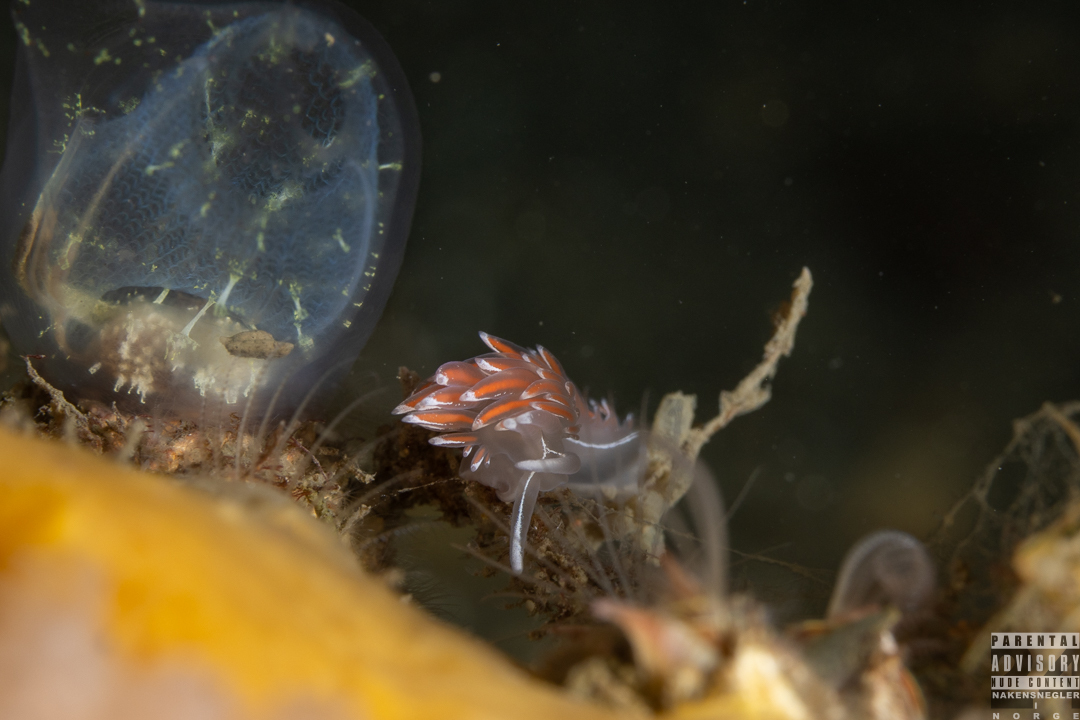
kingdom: Animalia
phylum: Mollusca
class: Gastropoda
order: Nudibranchia
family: Coryphellidae
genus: Coryphella
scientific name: Coryphella lineata
